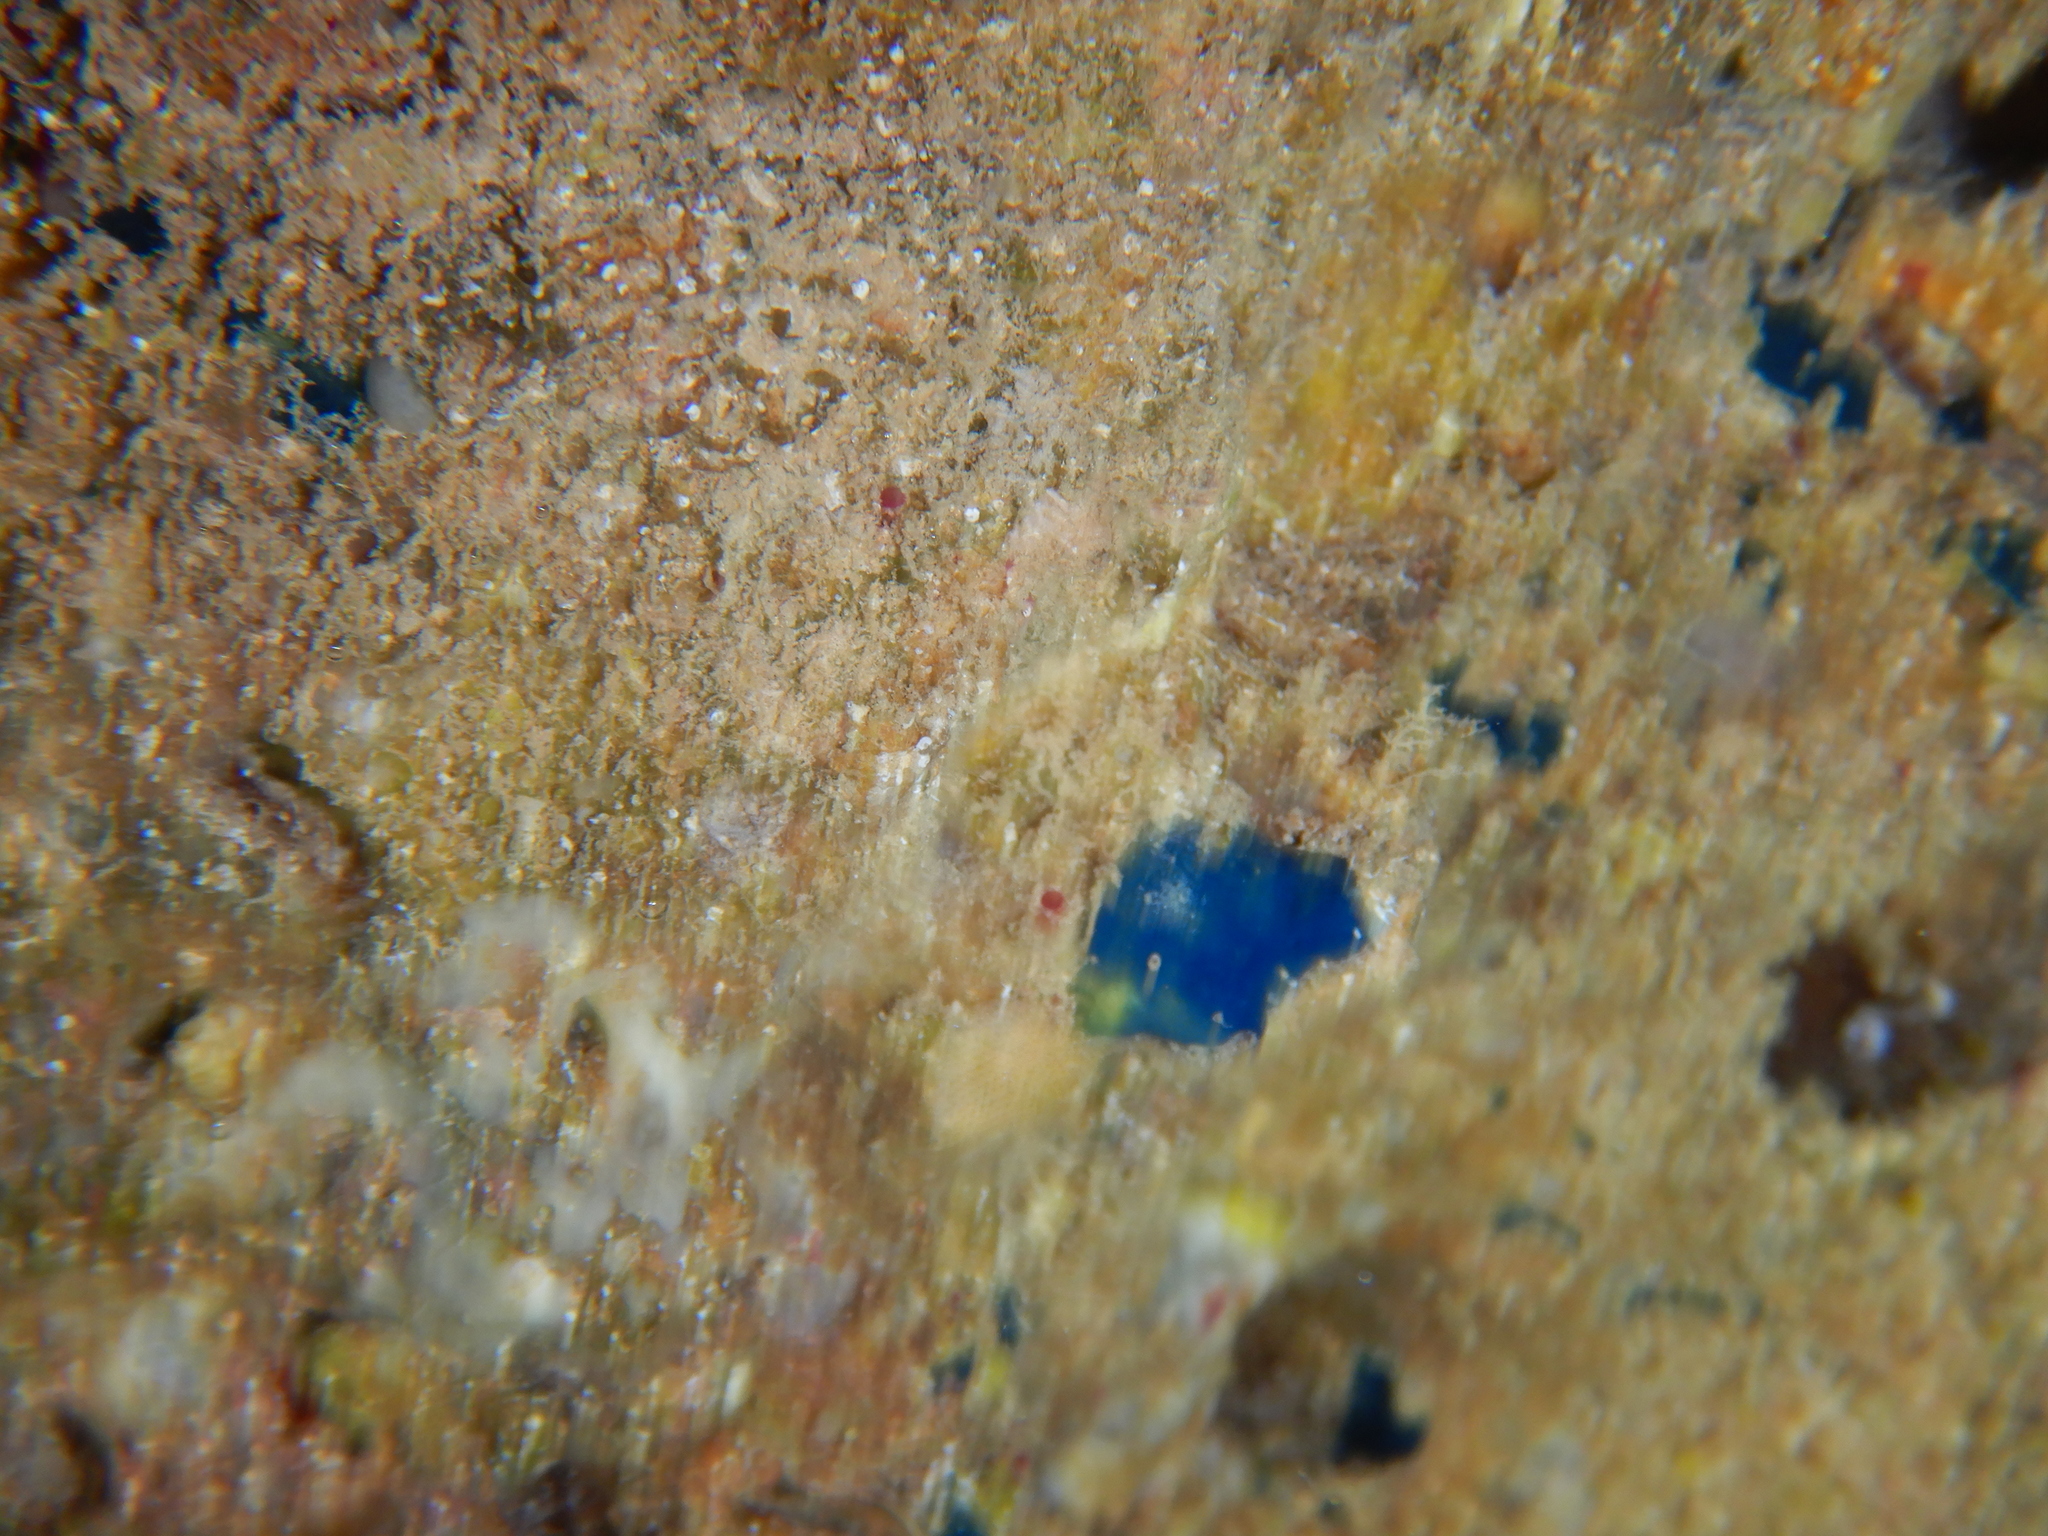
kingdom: Animalia
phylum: Porifera
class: Demospongiae
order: Suberitida
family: Suberitidae
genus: Terpios
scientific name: Terpios gelatinosus
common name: Blue encrusting sponge
